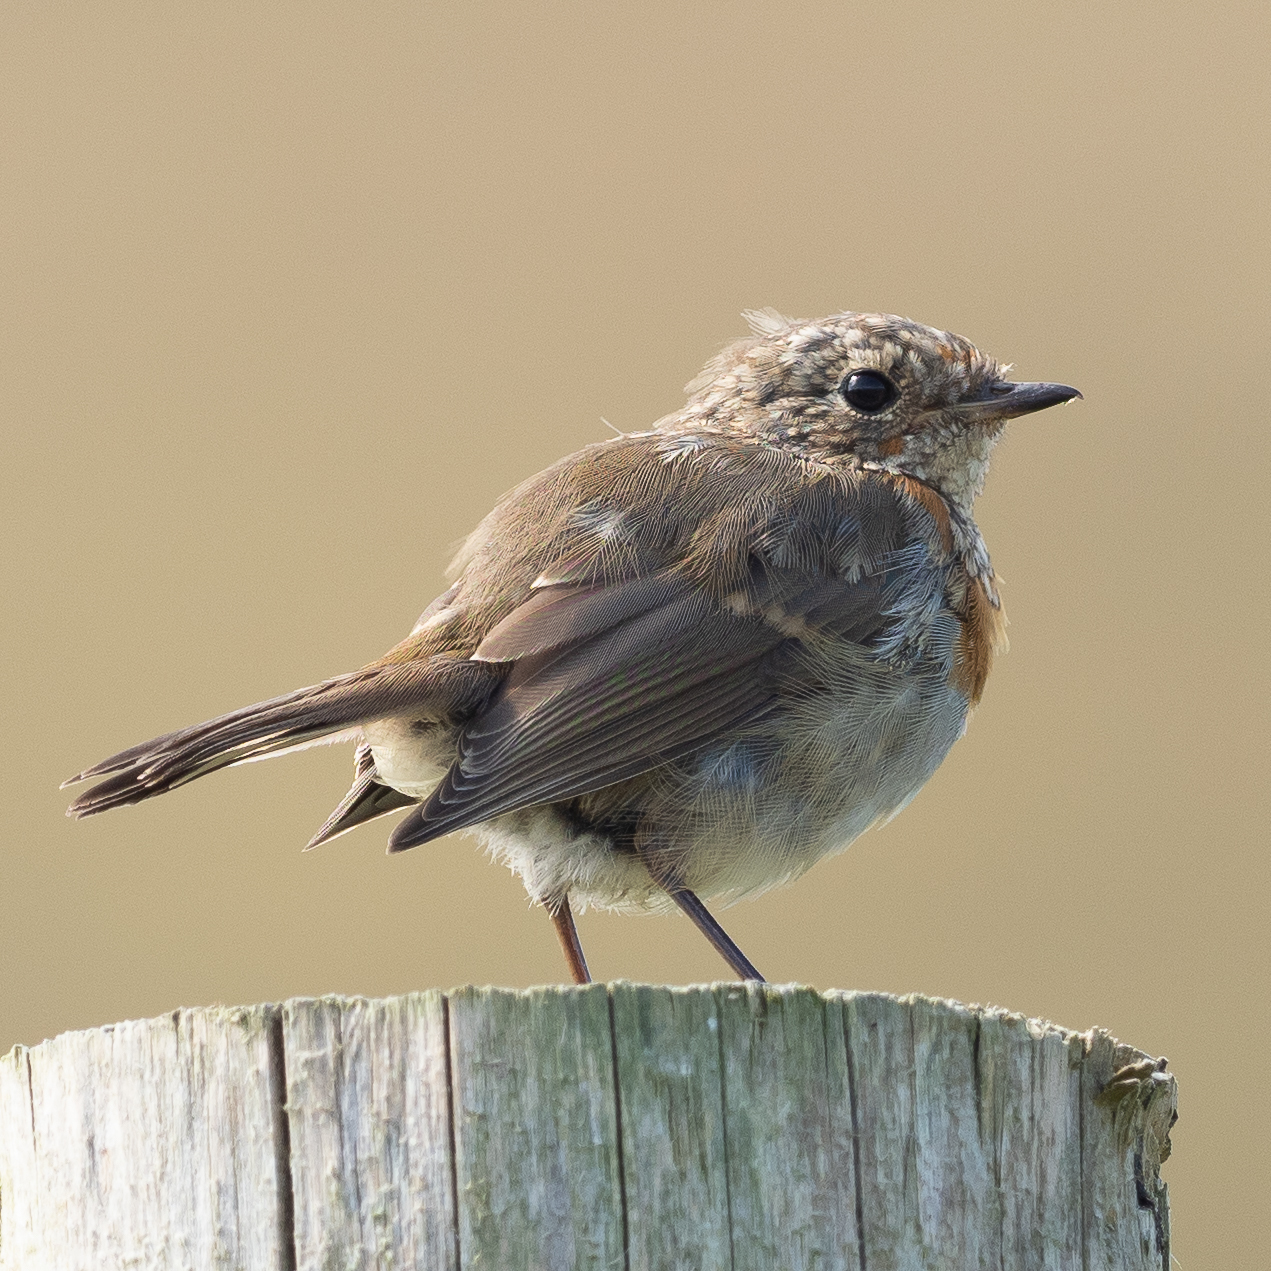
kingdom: Animalia
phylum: Chordata
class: Aves
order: Passeriformes
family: Muscicapidae
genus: Erithacus
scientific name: Erithacus rubecula
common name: European robin
